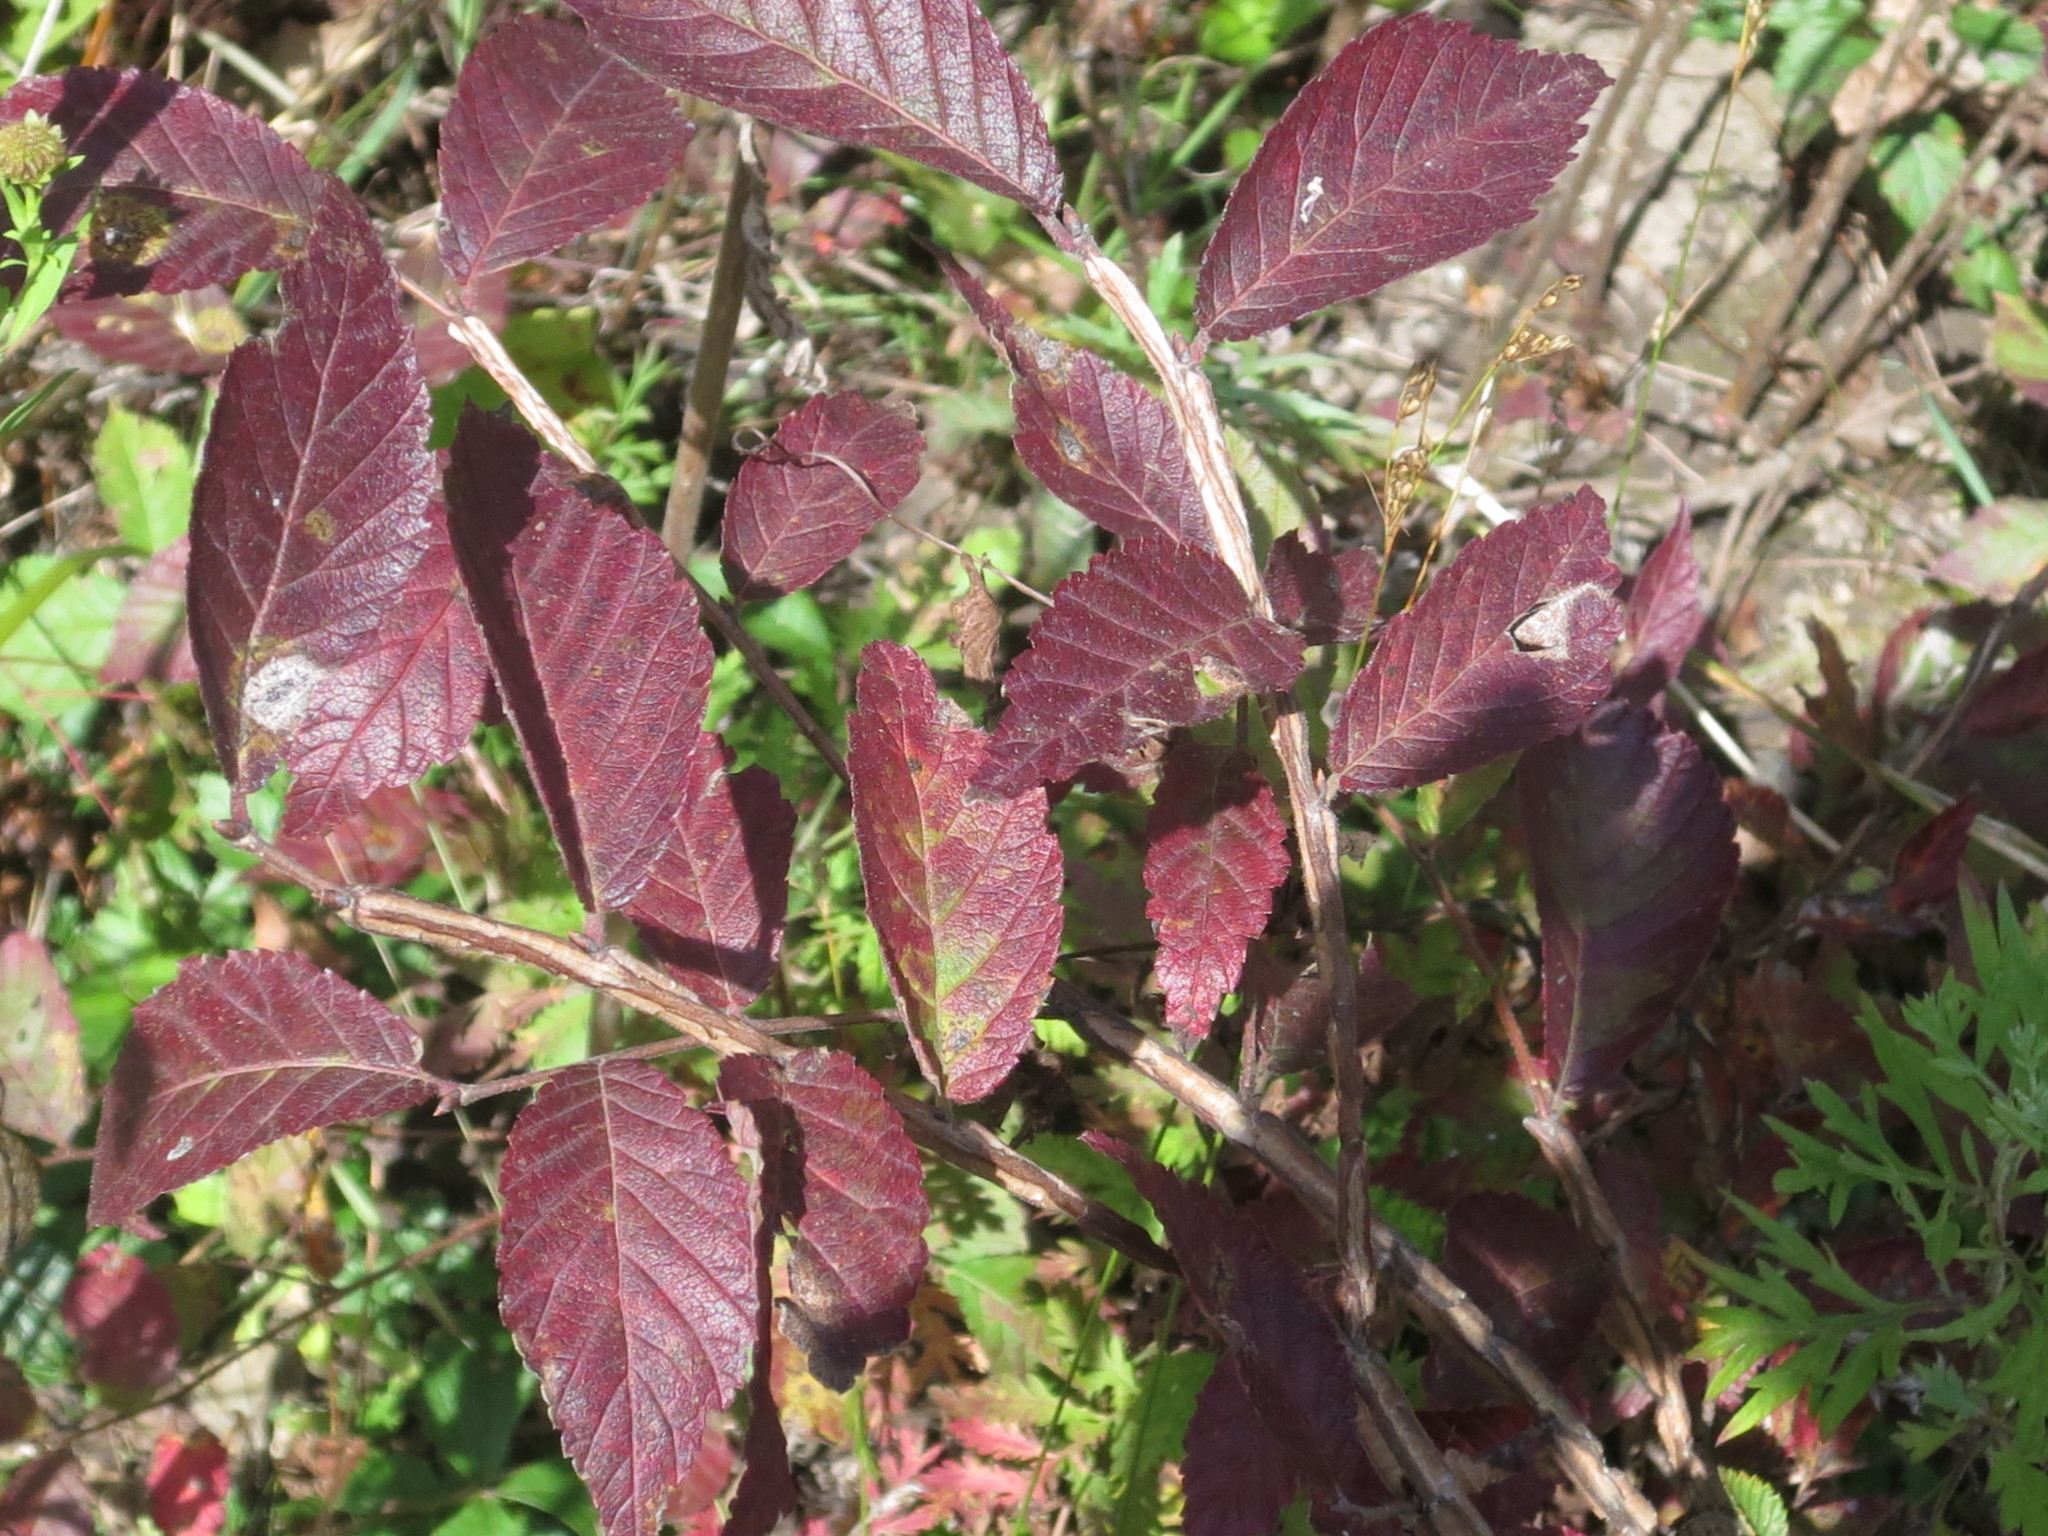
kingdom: Plantae
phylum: Tracheophyta
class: Magnoliopsida
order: Rosales
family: Ulmaceae
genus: Ulmus
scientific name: Ulmus davidiana
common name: Japanese elm
